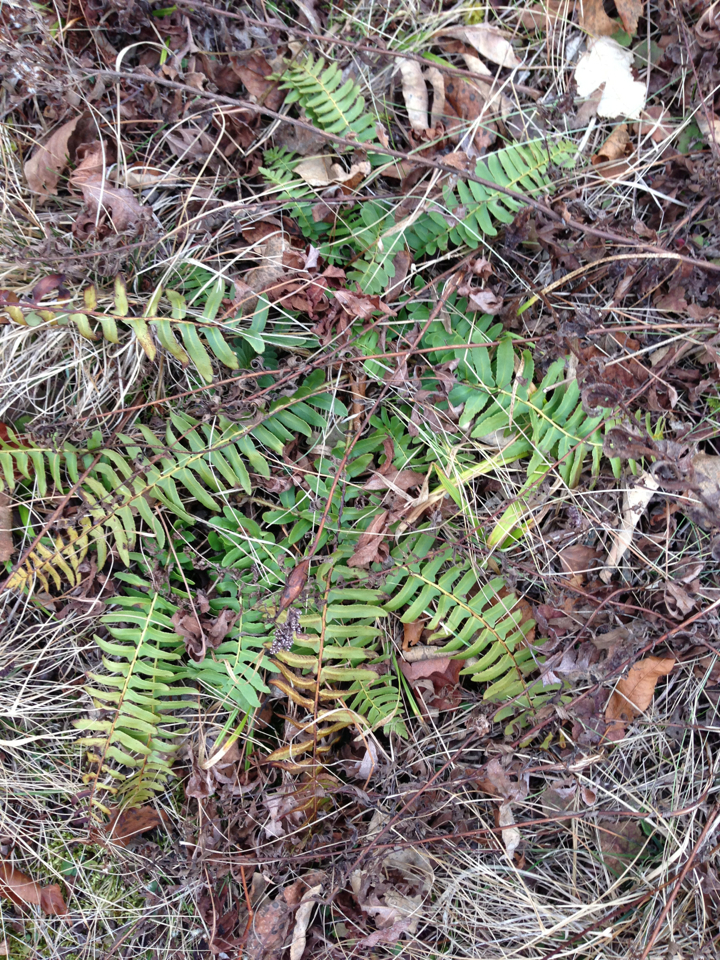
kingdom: Plantae
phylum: Tracheophyta
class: Polypodiopsida
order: Polypodiales
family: Dryopteridaceae
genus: Polystichum
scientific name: Polystichum acrostichoides
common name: Christmas fern
